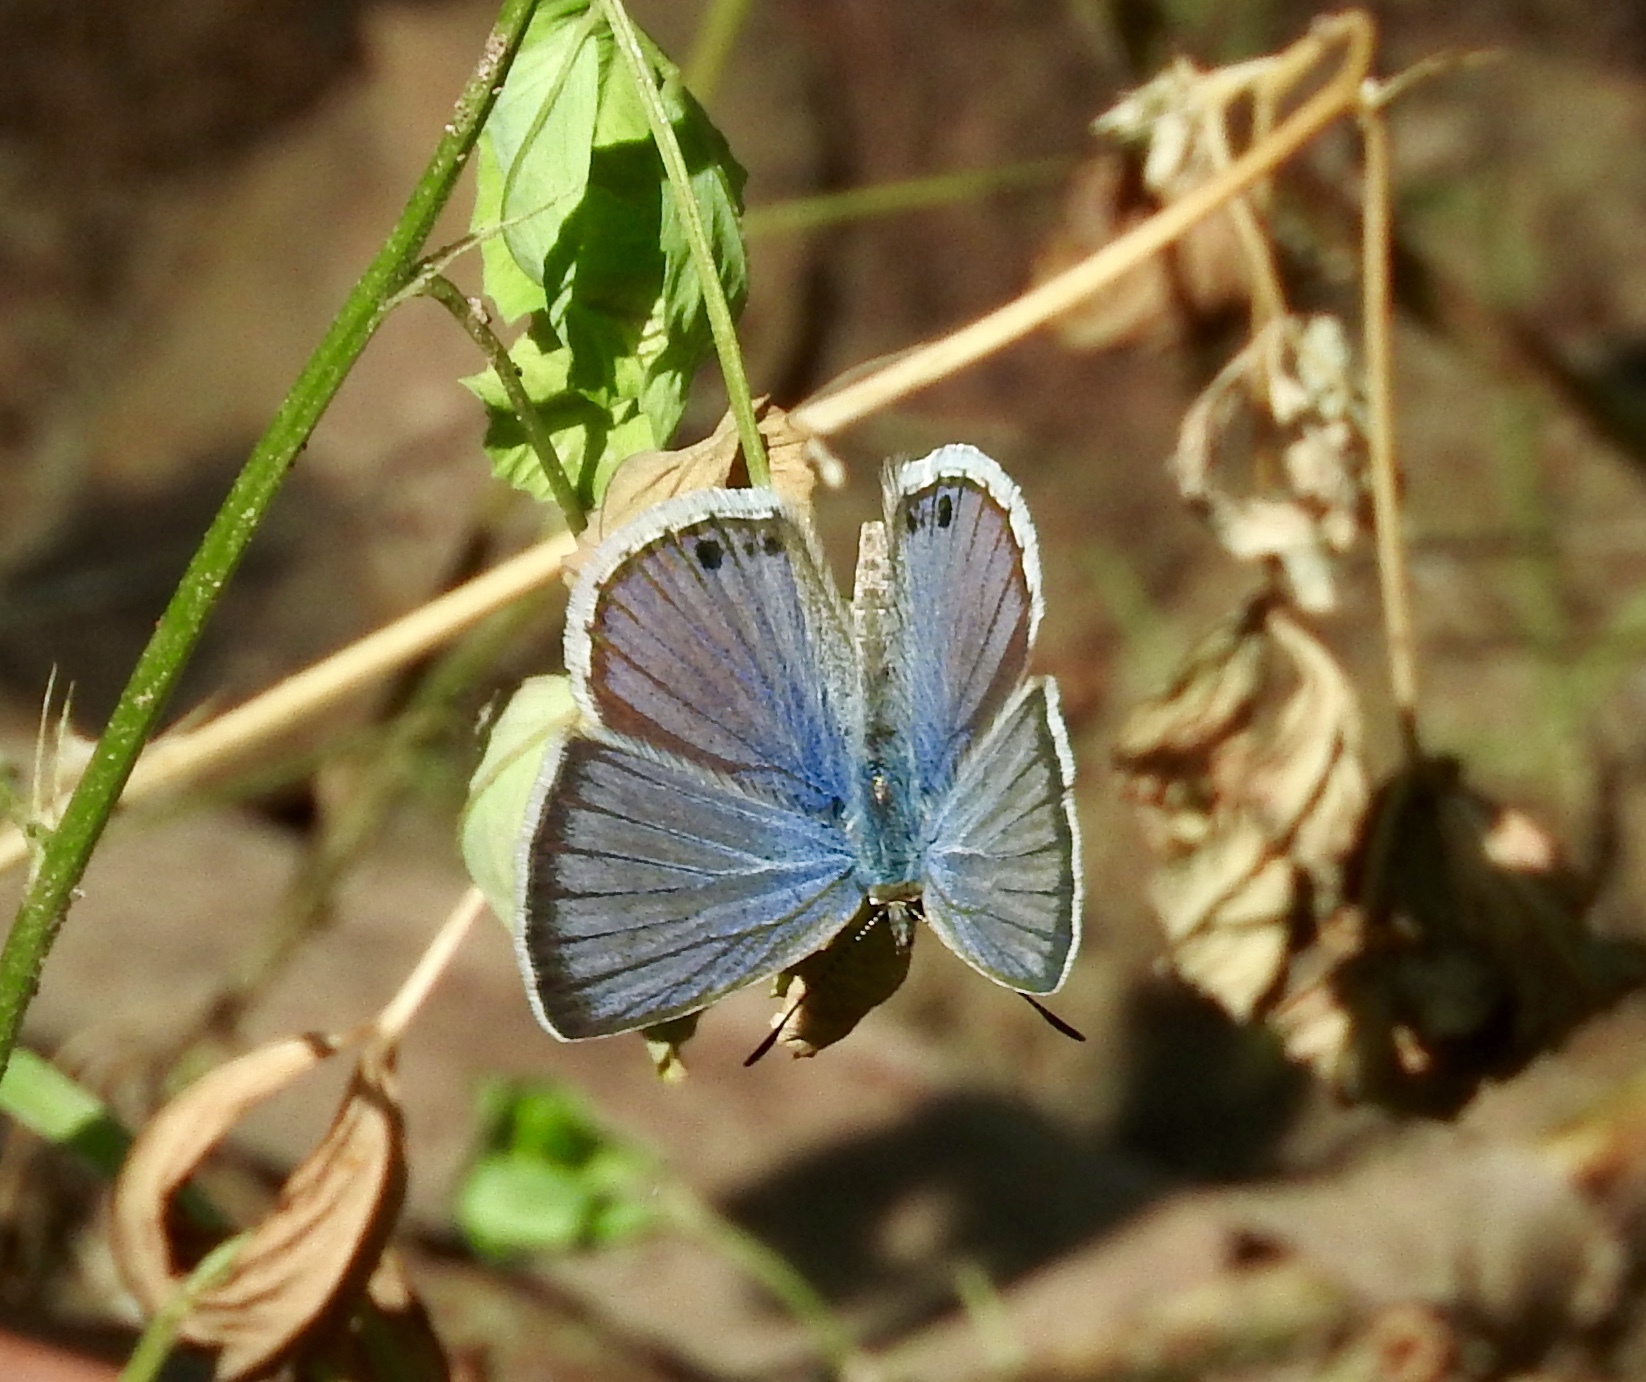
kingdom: Animalia
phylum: Arthropoda
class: Insecta
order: Lepidoptera
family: Lycaenidae
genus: Echinargus
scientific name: Echinargus isola
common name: Reakirt's blue
